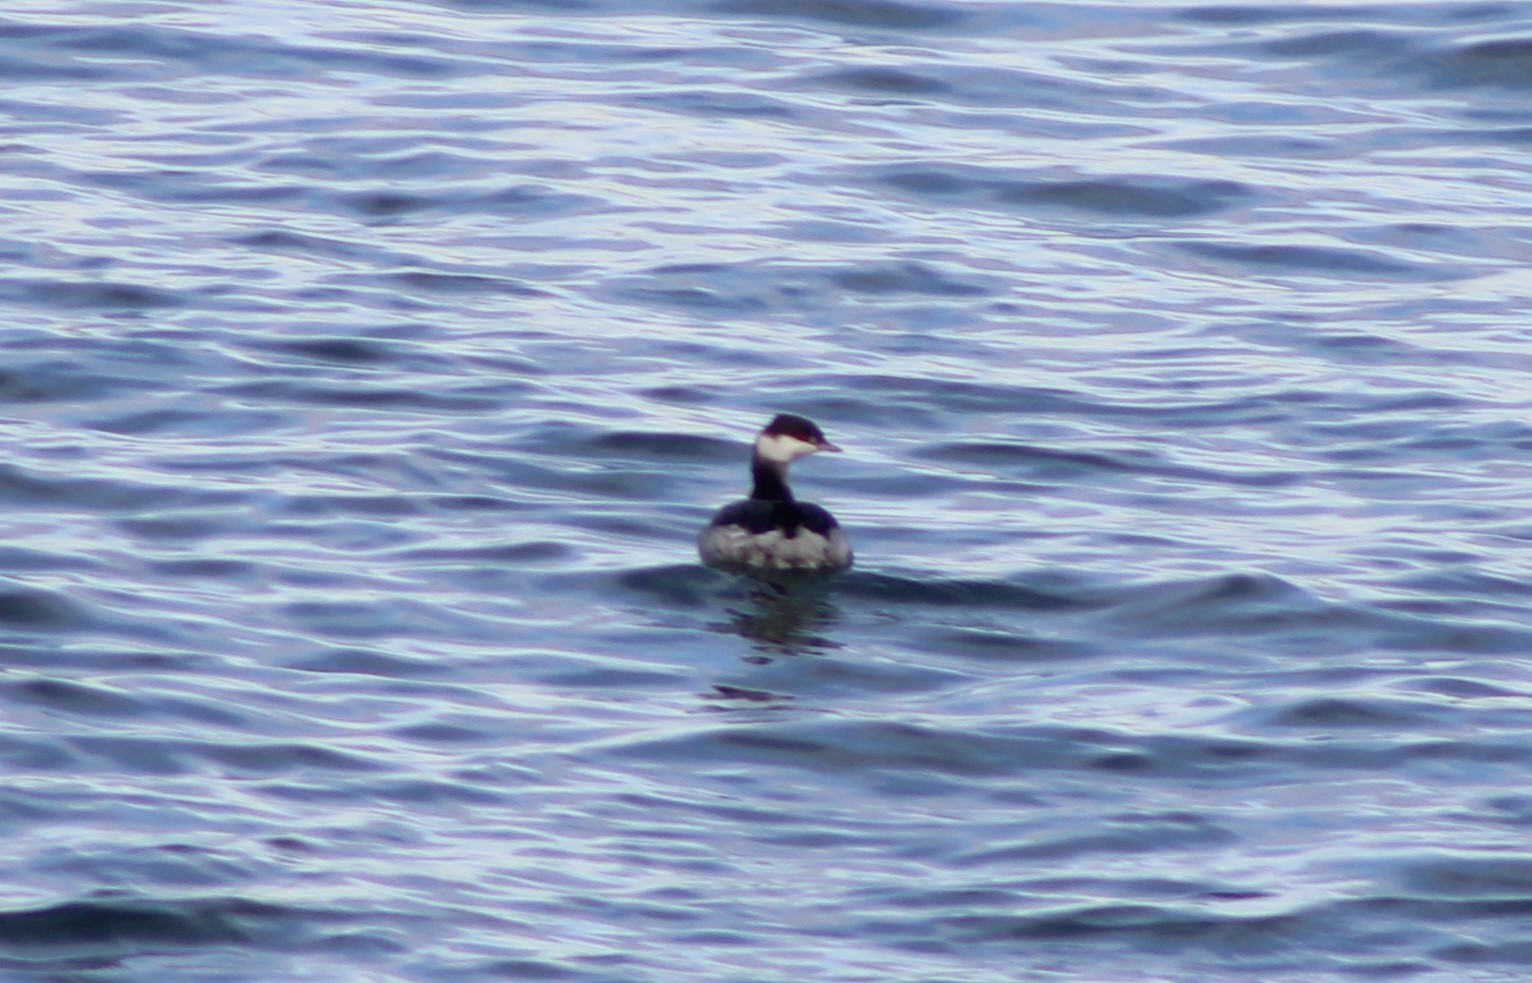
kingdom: Animalia
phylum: Chordata
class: Aves
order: Podicipediformes
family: Podicipedidae
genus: Podiceps
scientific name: Podiceps auritus
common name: Horned grebe
